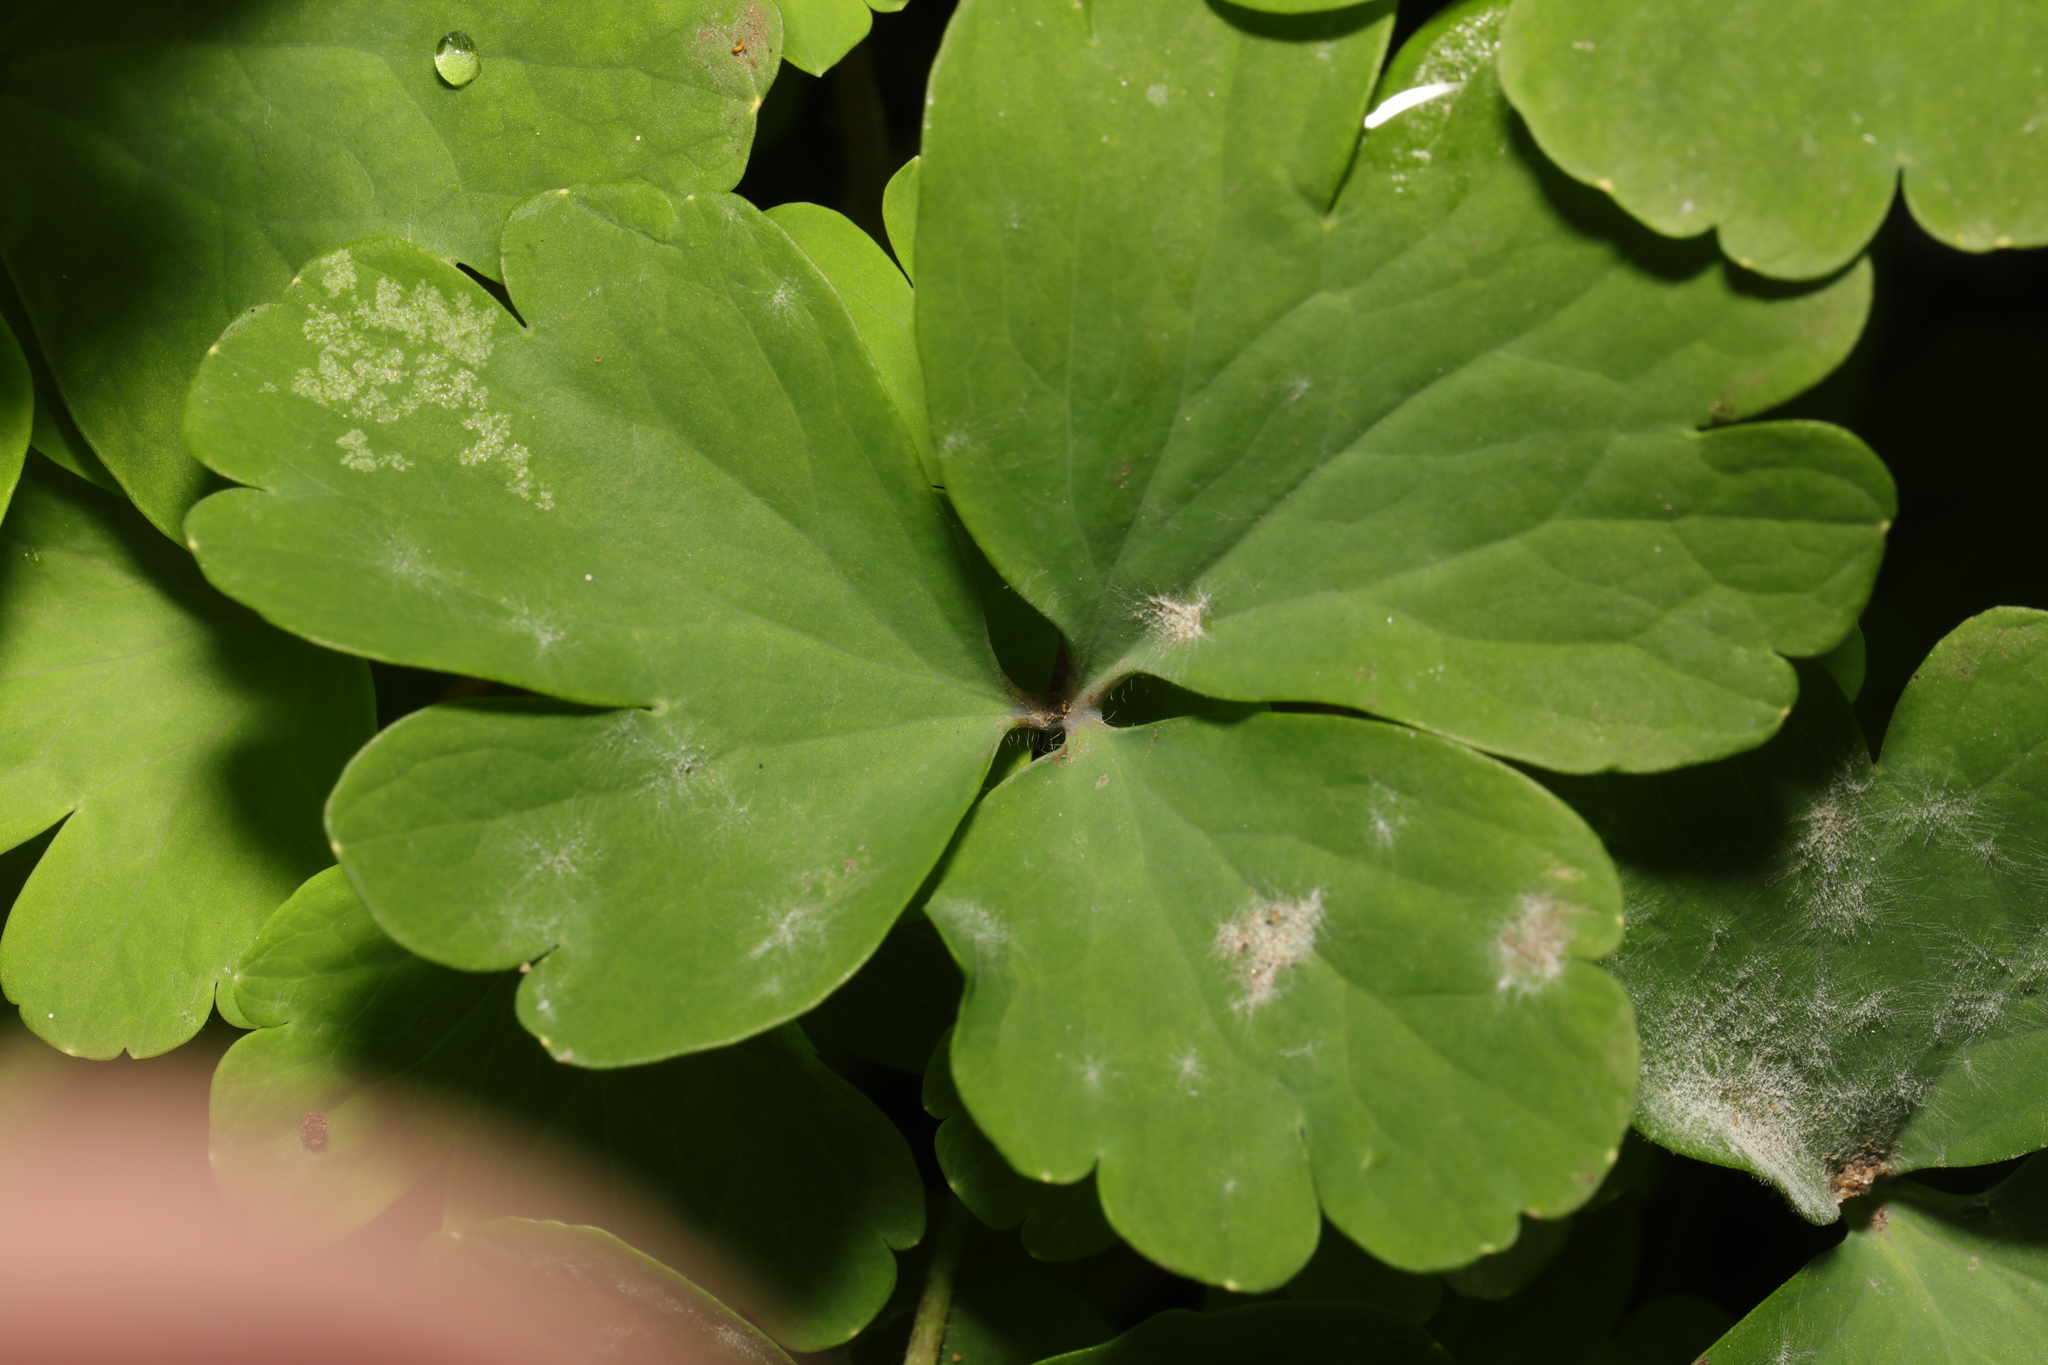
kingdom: Fungi
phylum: Ascomycota
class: Leotiomycetes
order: Helotiales
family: Erysiphaceae
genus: Erysiphe
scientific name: Erysiphe aquilegiae
